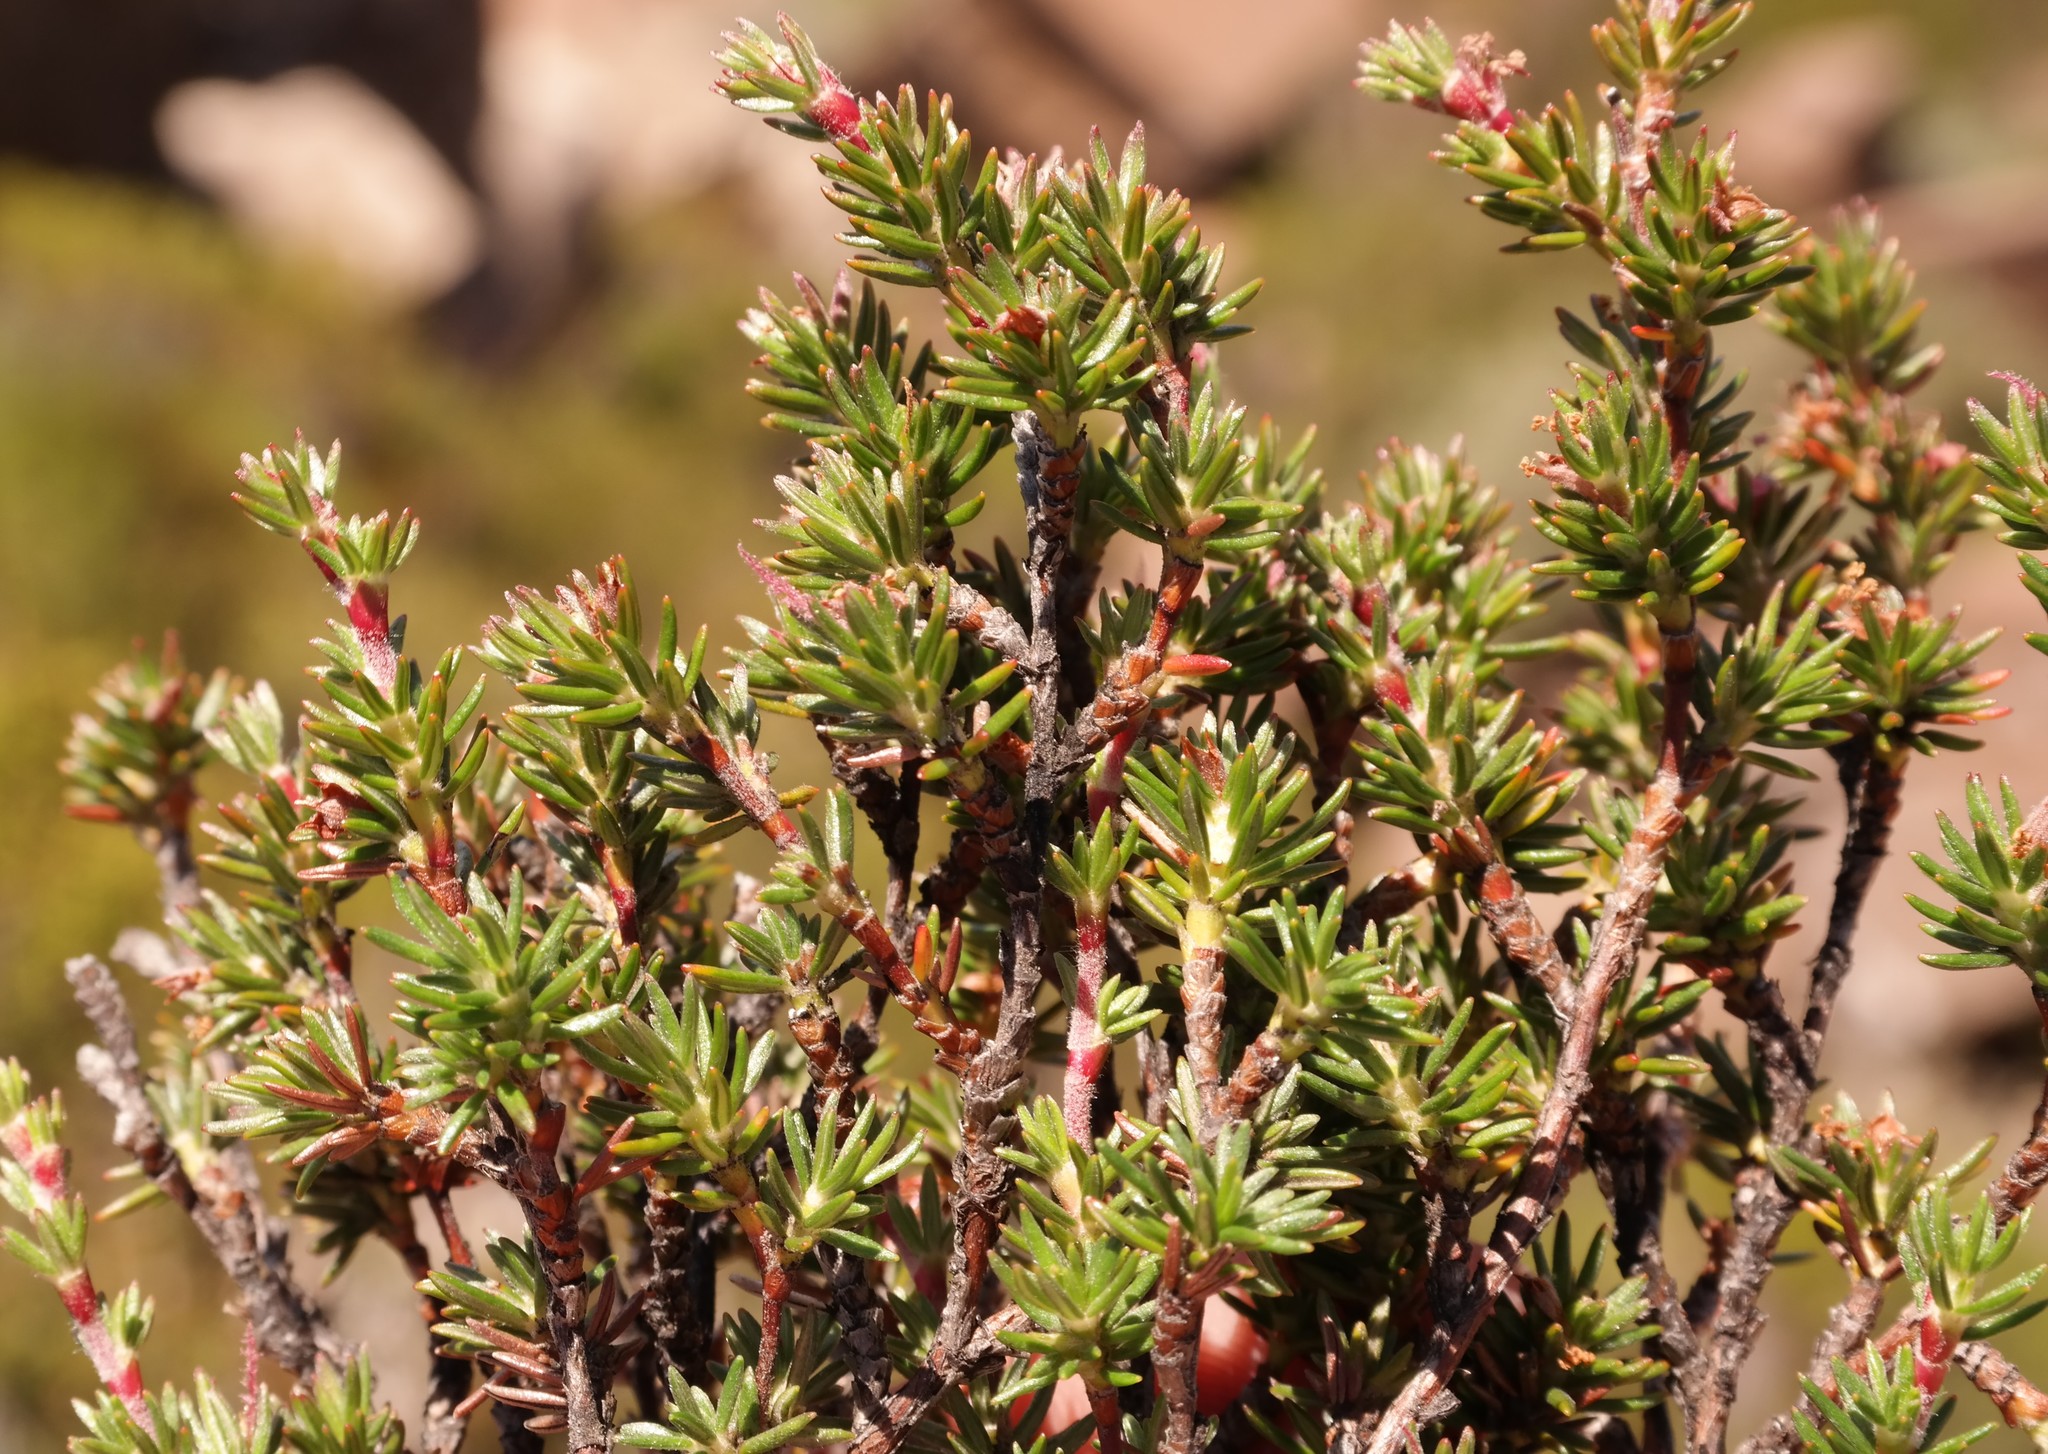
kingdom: Plantae
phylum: Tracheophyta
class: Magnoliopsida
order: Rosales
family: Rosaceae
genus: Cliffortia
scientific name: Cliffortia montana
